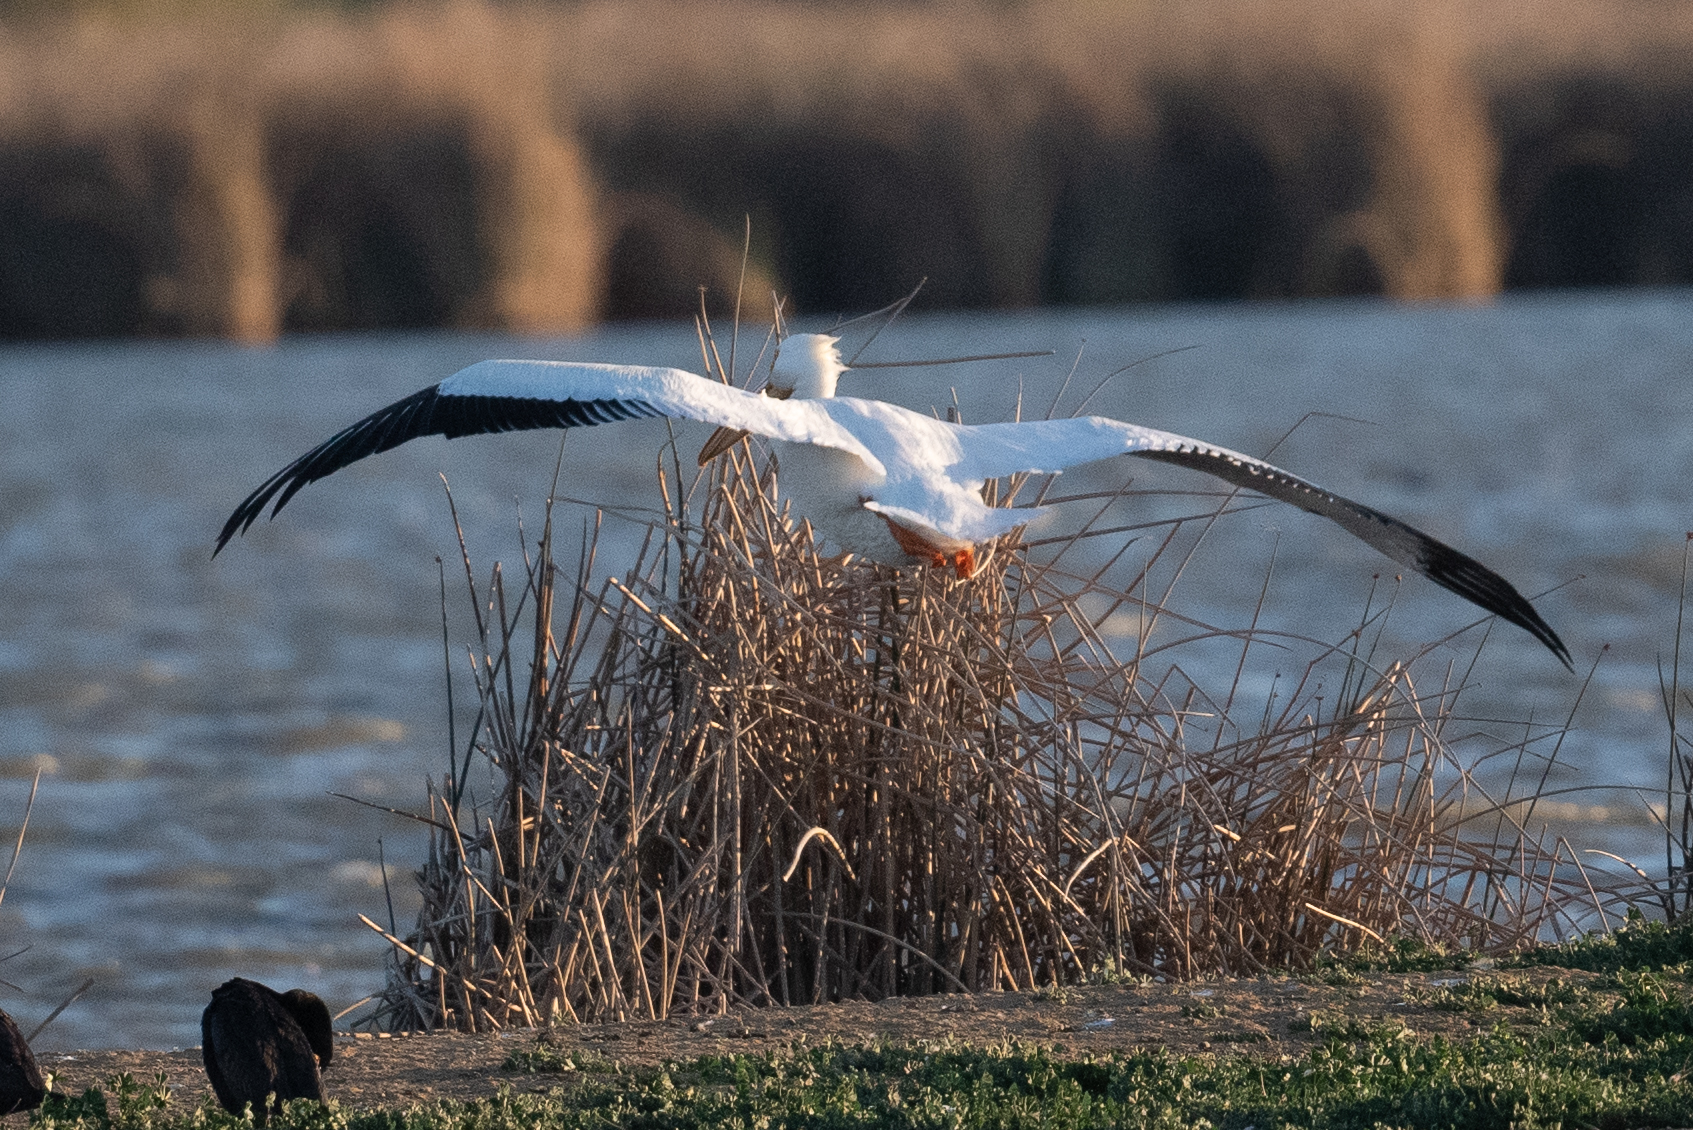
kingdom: Animalia
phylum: Chordata
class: Aves
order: Pelecaniformes
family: Pelecanidae
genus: Pelecanus
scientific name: Pelecanus erythrorhynchos
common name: American white pelican
